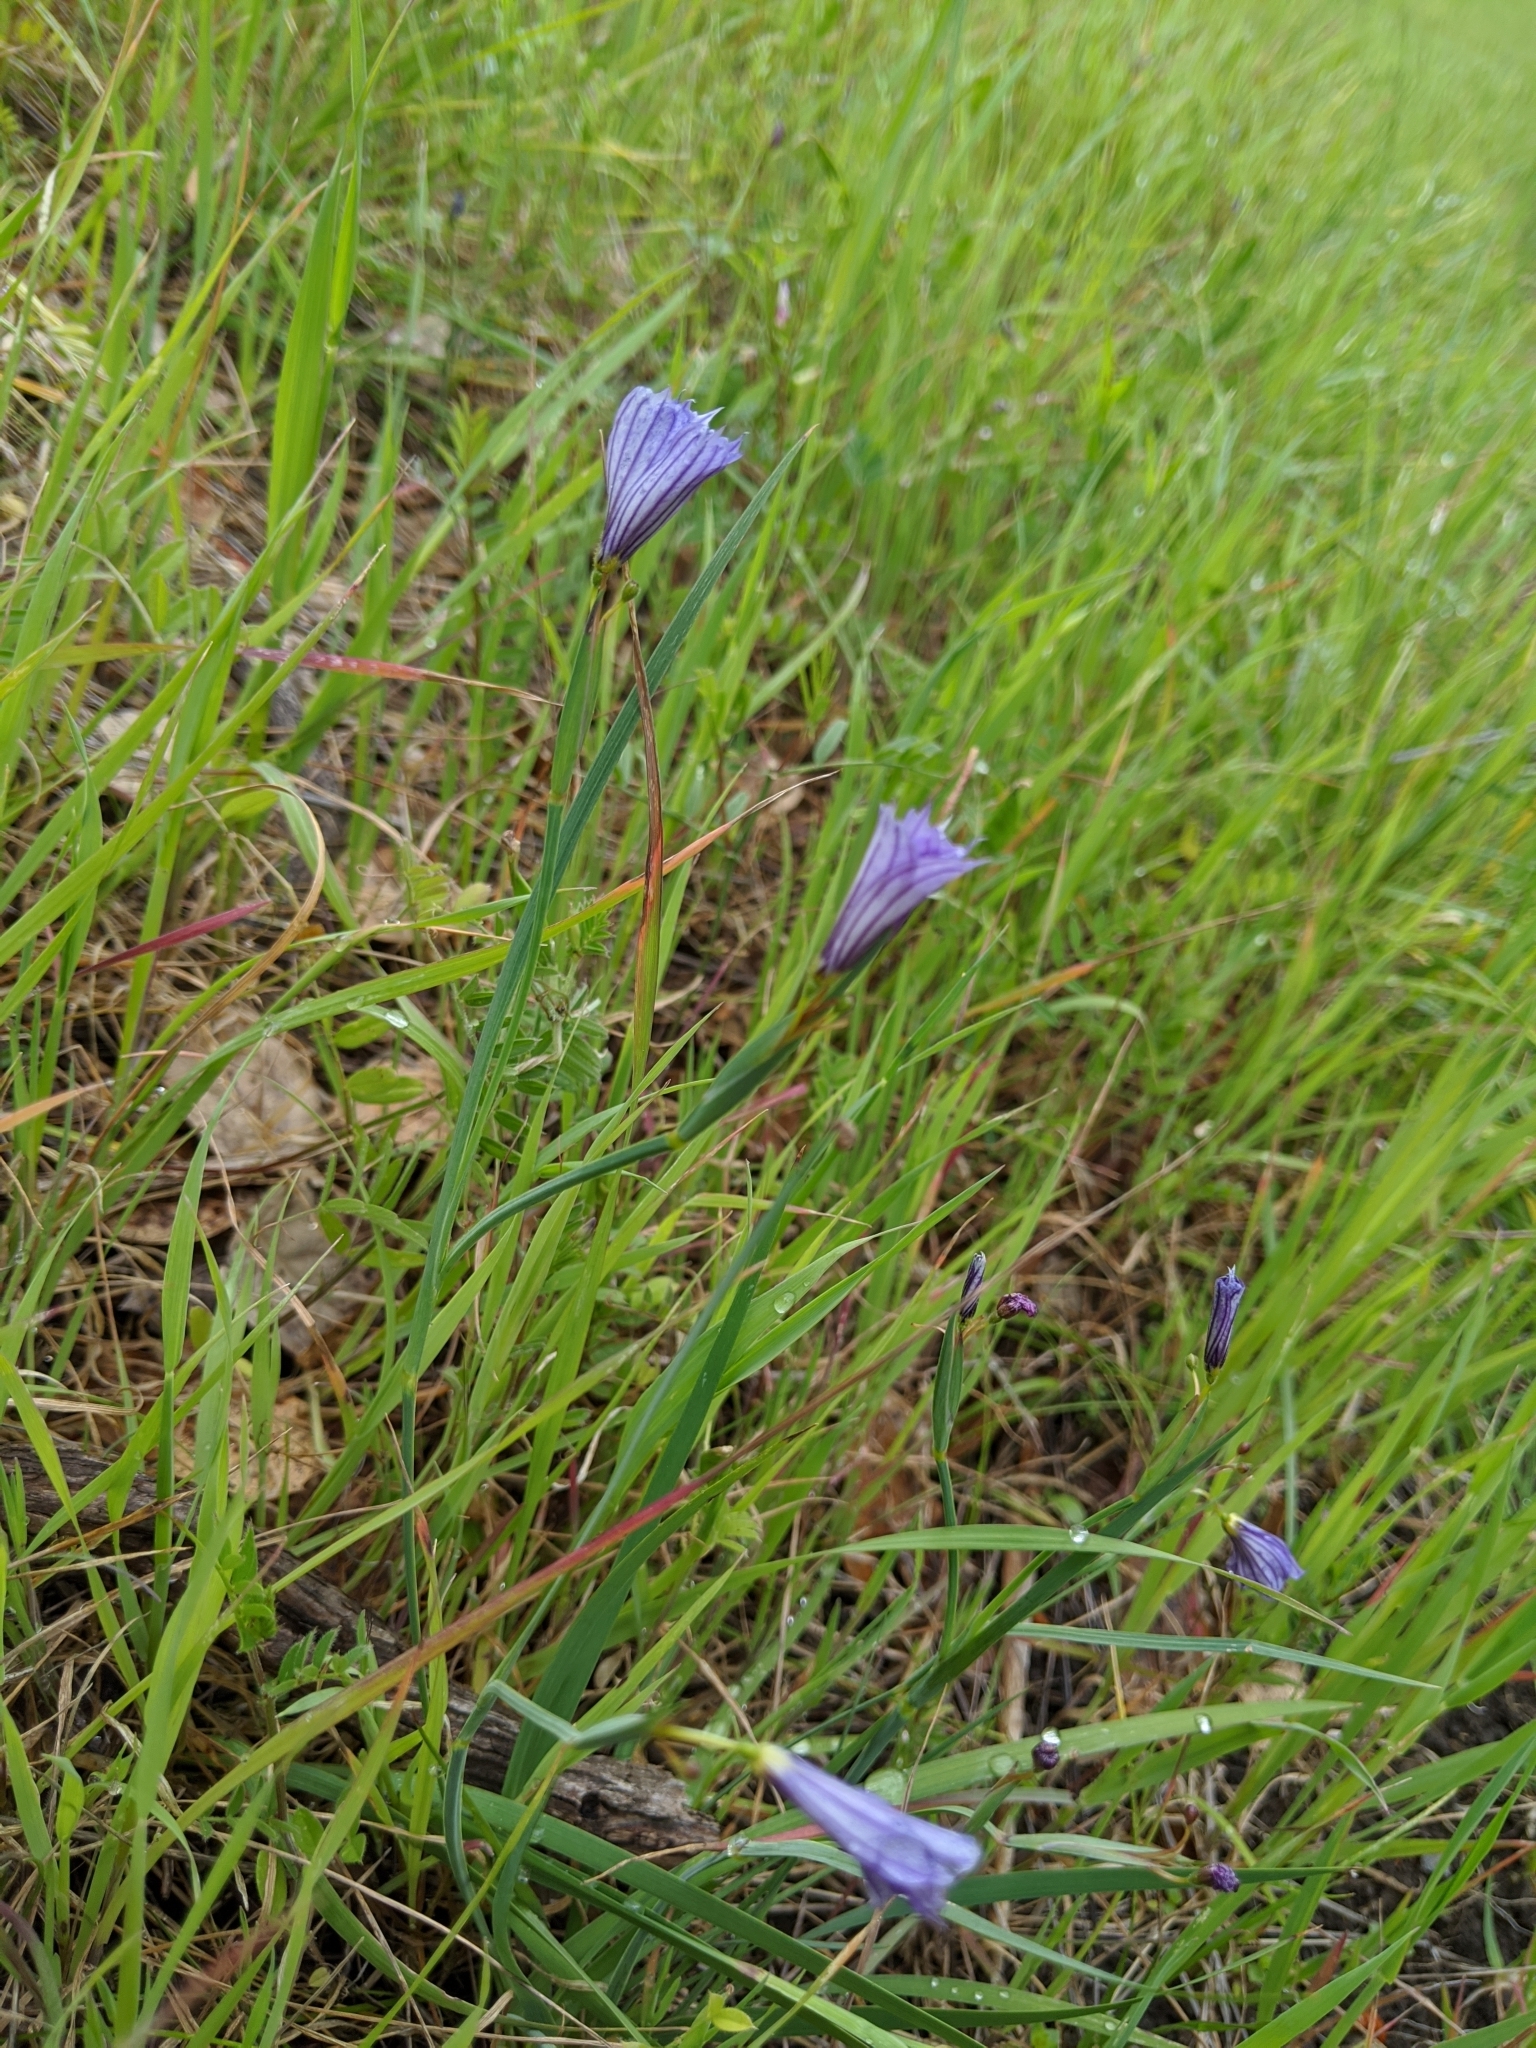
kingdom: Plantae
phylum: Tracheophyta
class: Liliopsida
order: Asparagales
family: Iridaceae
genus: Sisyrinchium
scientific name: Sisyrinchium bellum
